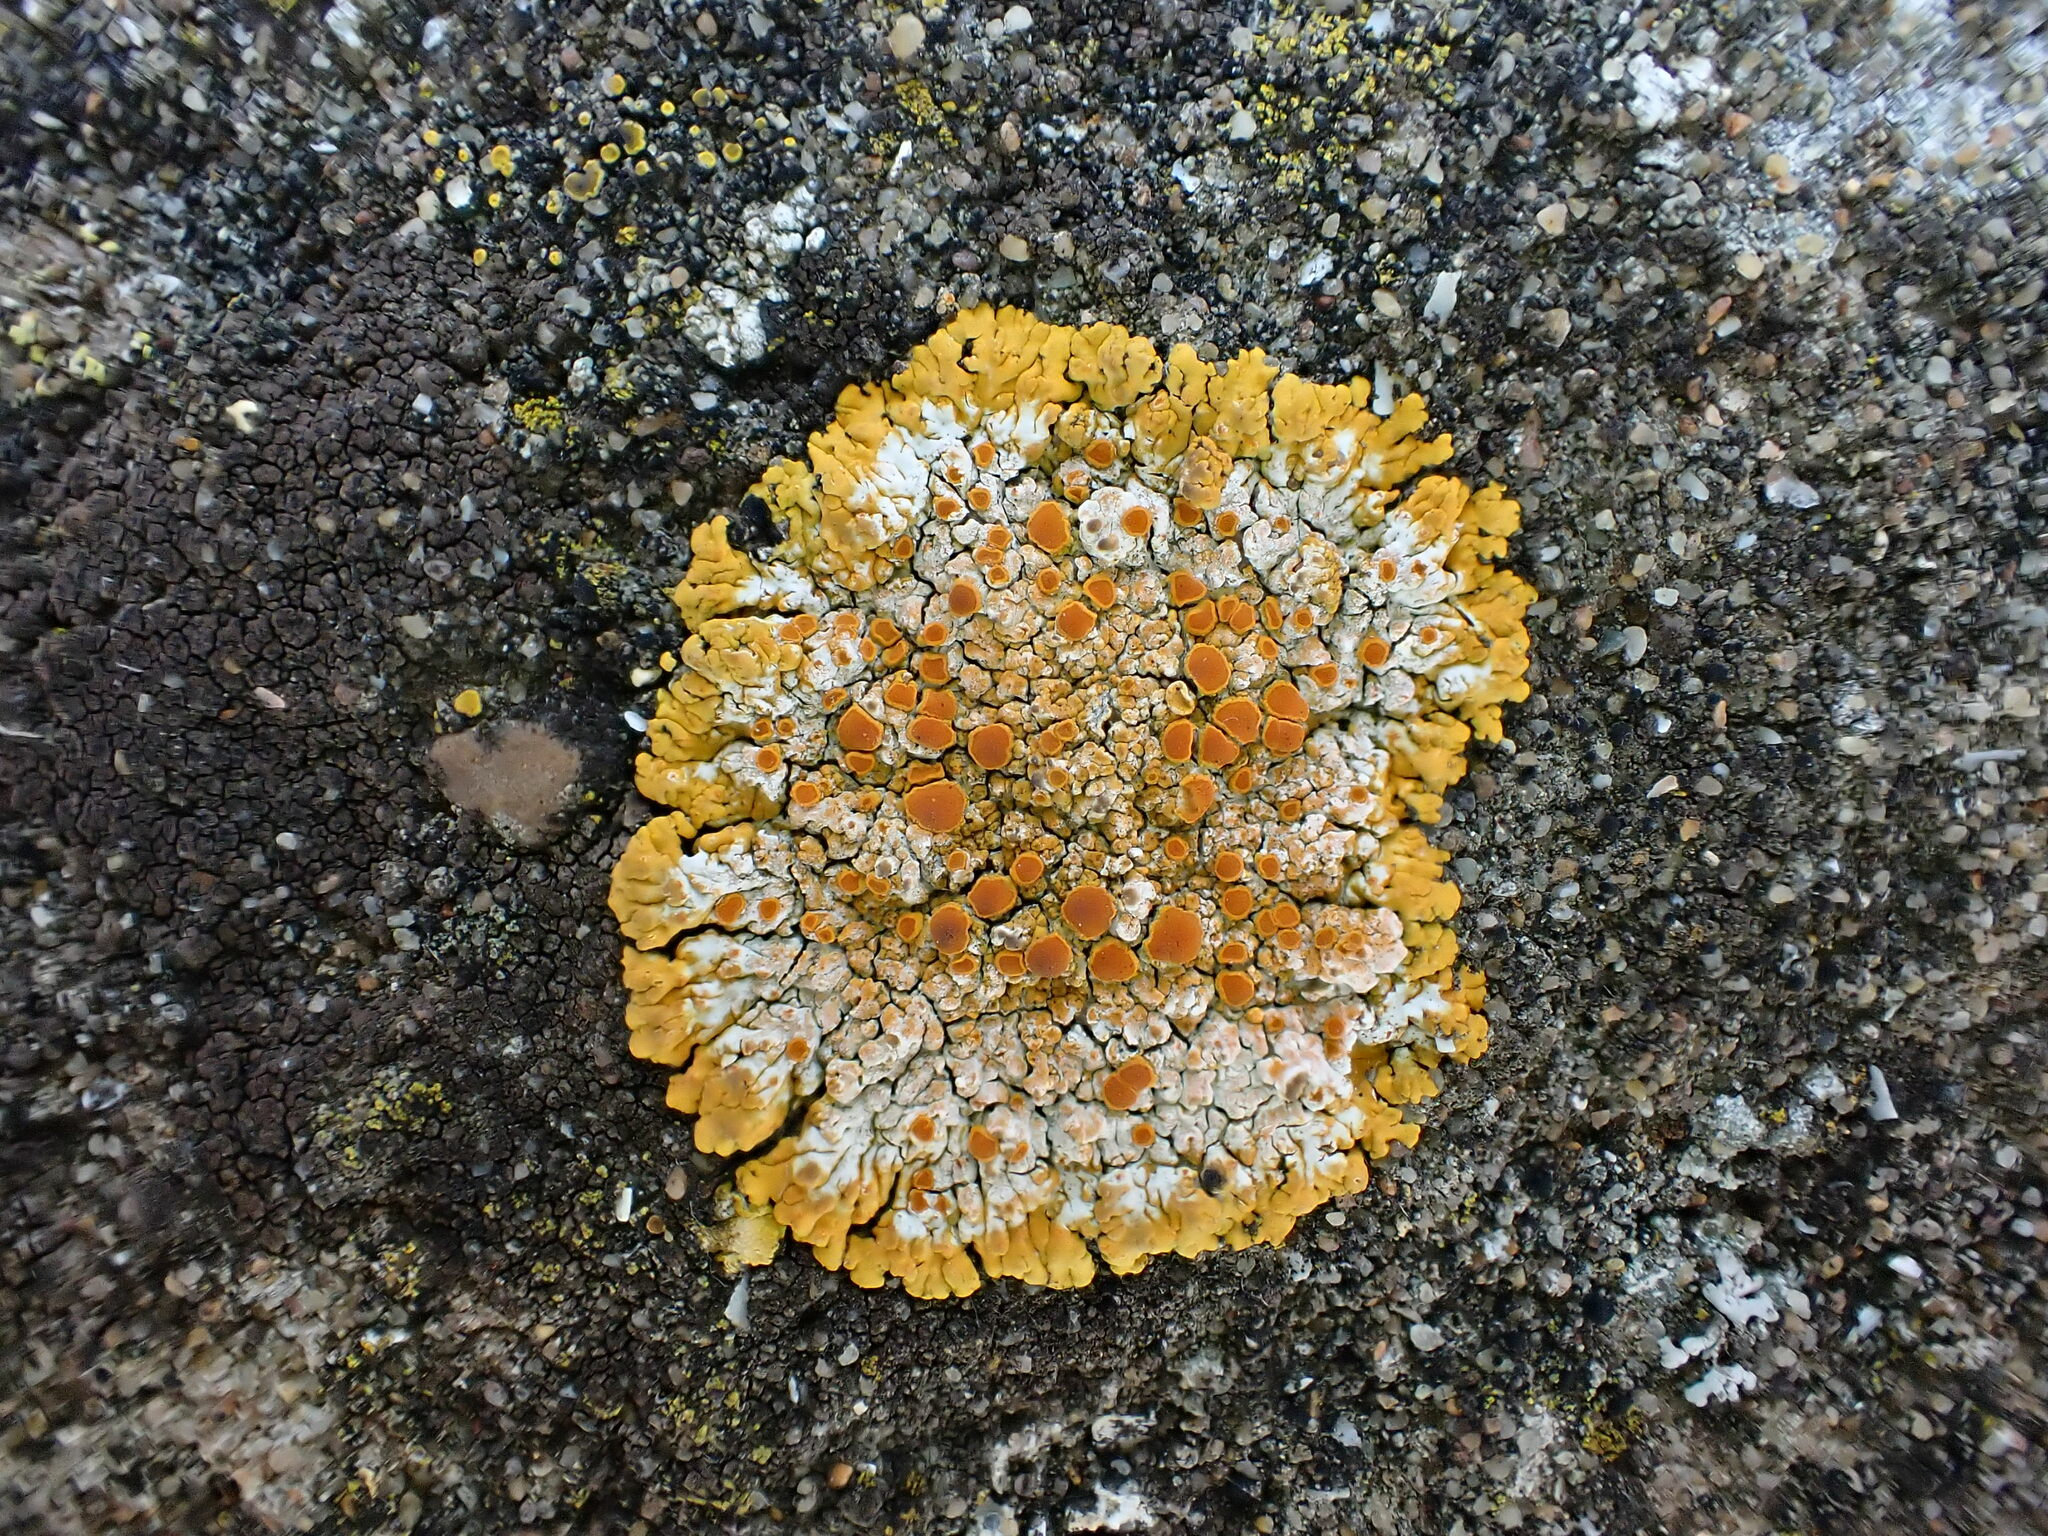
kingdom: Fungi
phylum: Ascomycota
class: Lecanoromycetes
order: Teloschistales
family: Teloschistaceae
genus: Variospora
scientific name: Variospora flavescens
